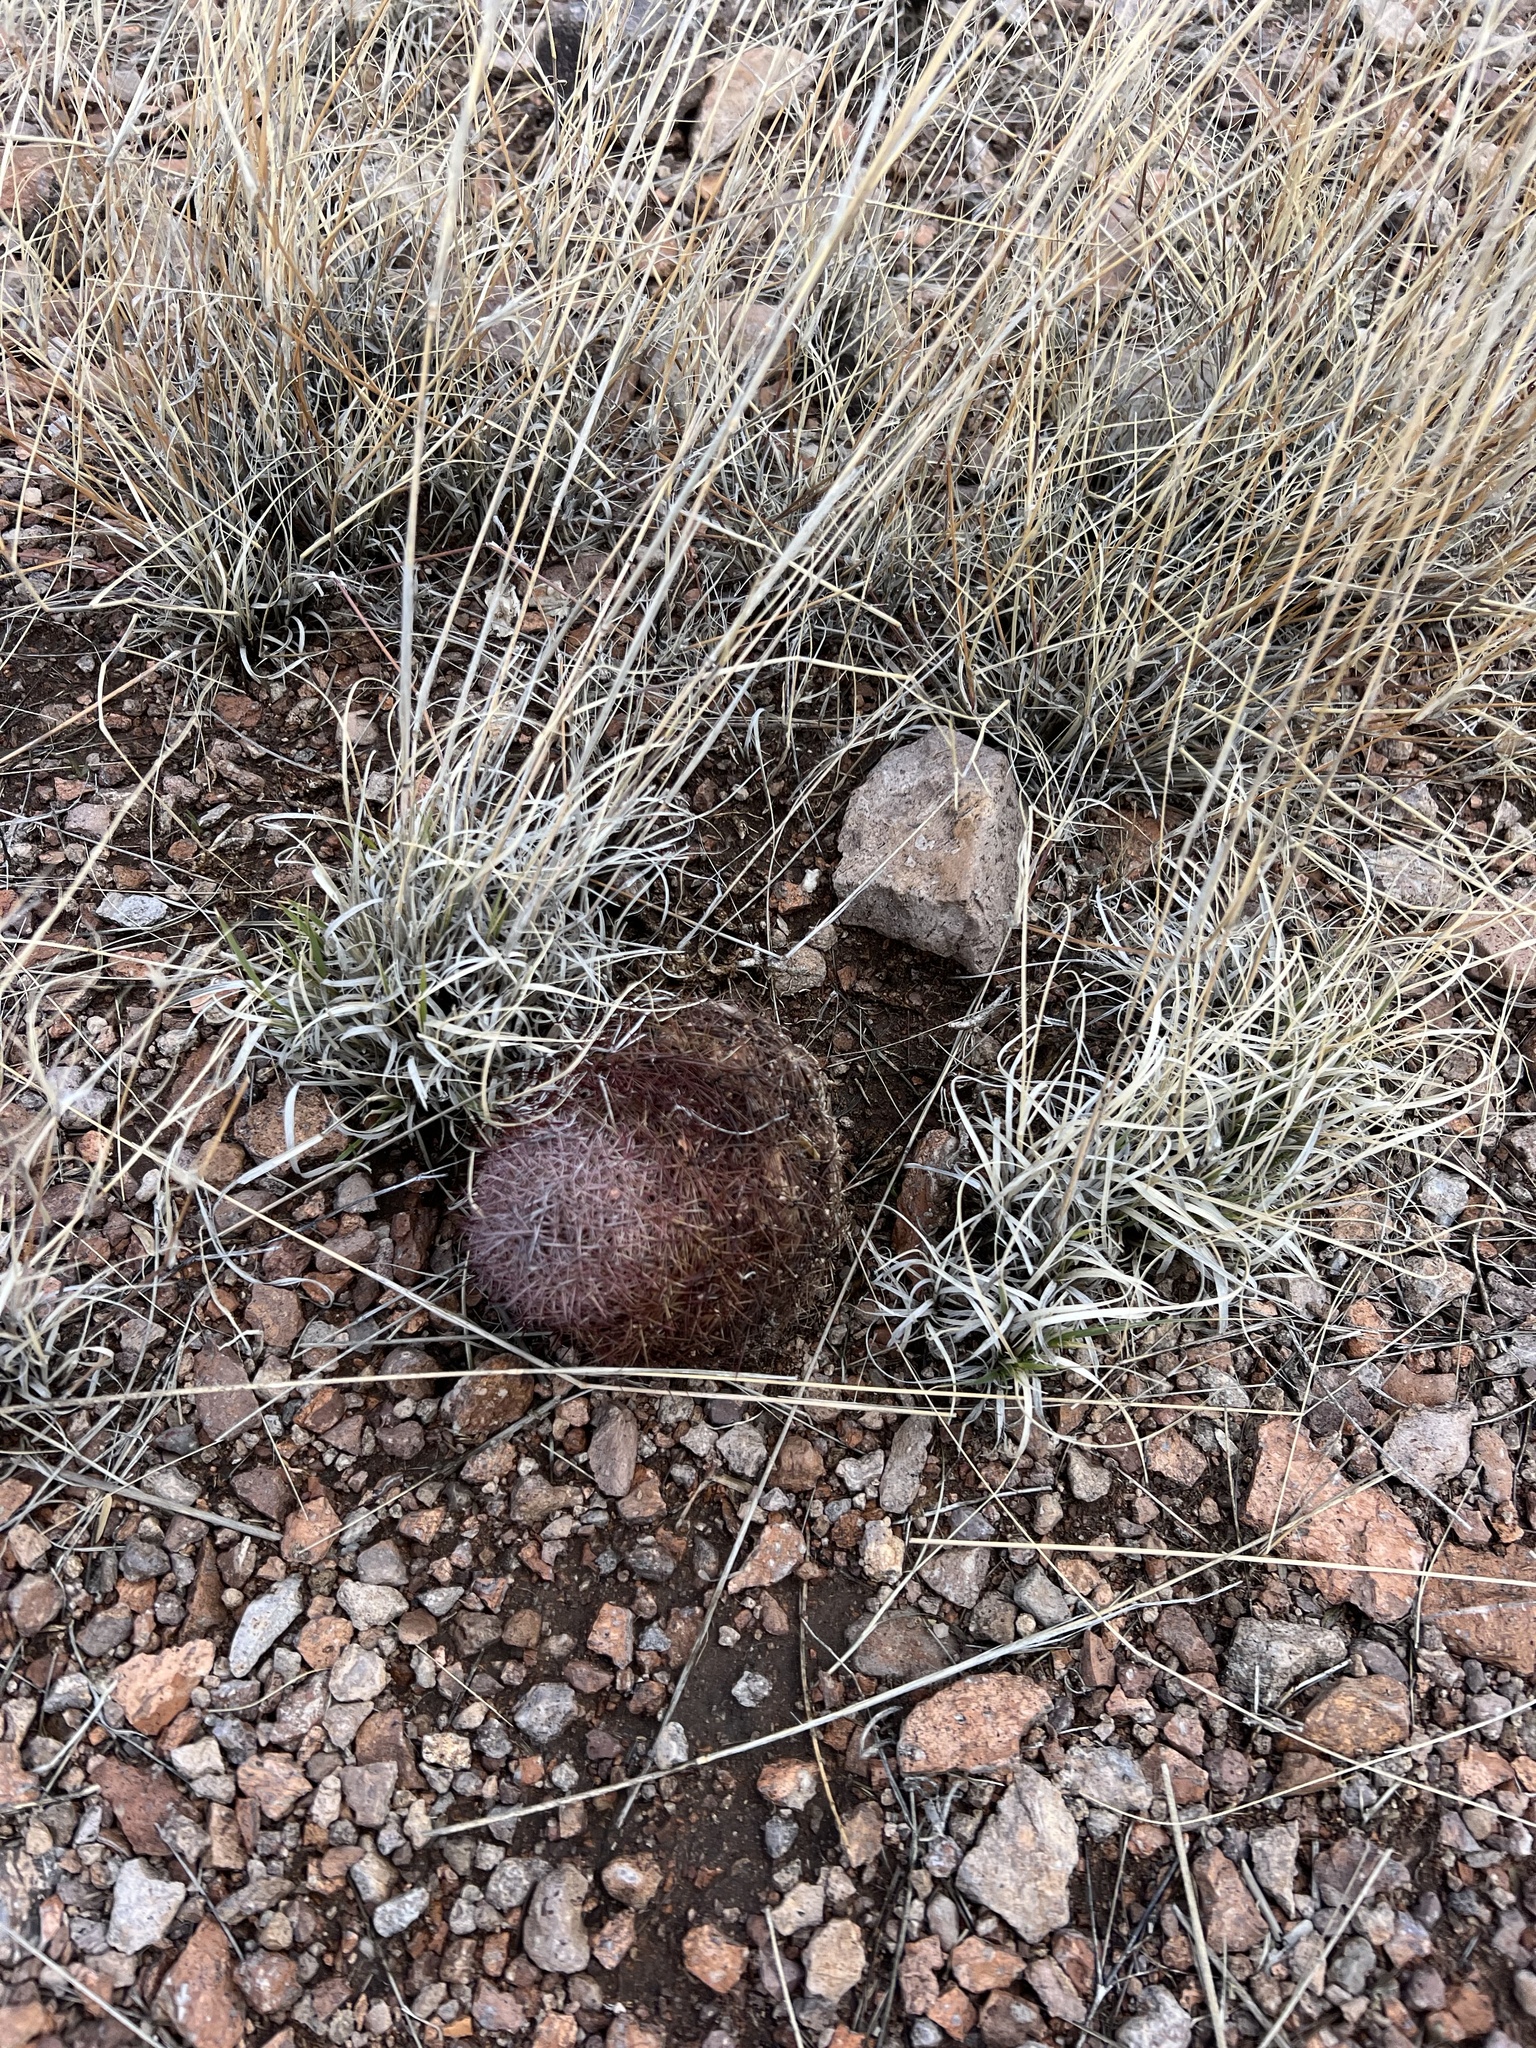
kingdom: Plantae
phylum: Tracheophyta
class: Magnoliopsida
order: Caryophyllales
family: Cactaceae
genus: Sclerocactus
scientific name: Sclerocactus johnsonii
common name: Eight-spine fishhook cactus
